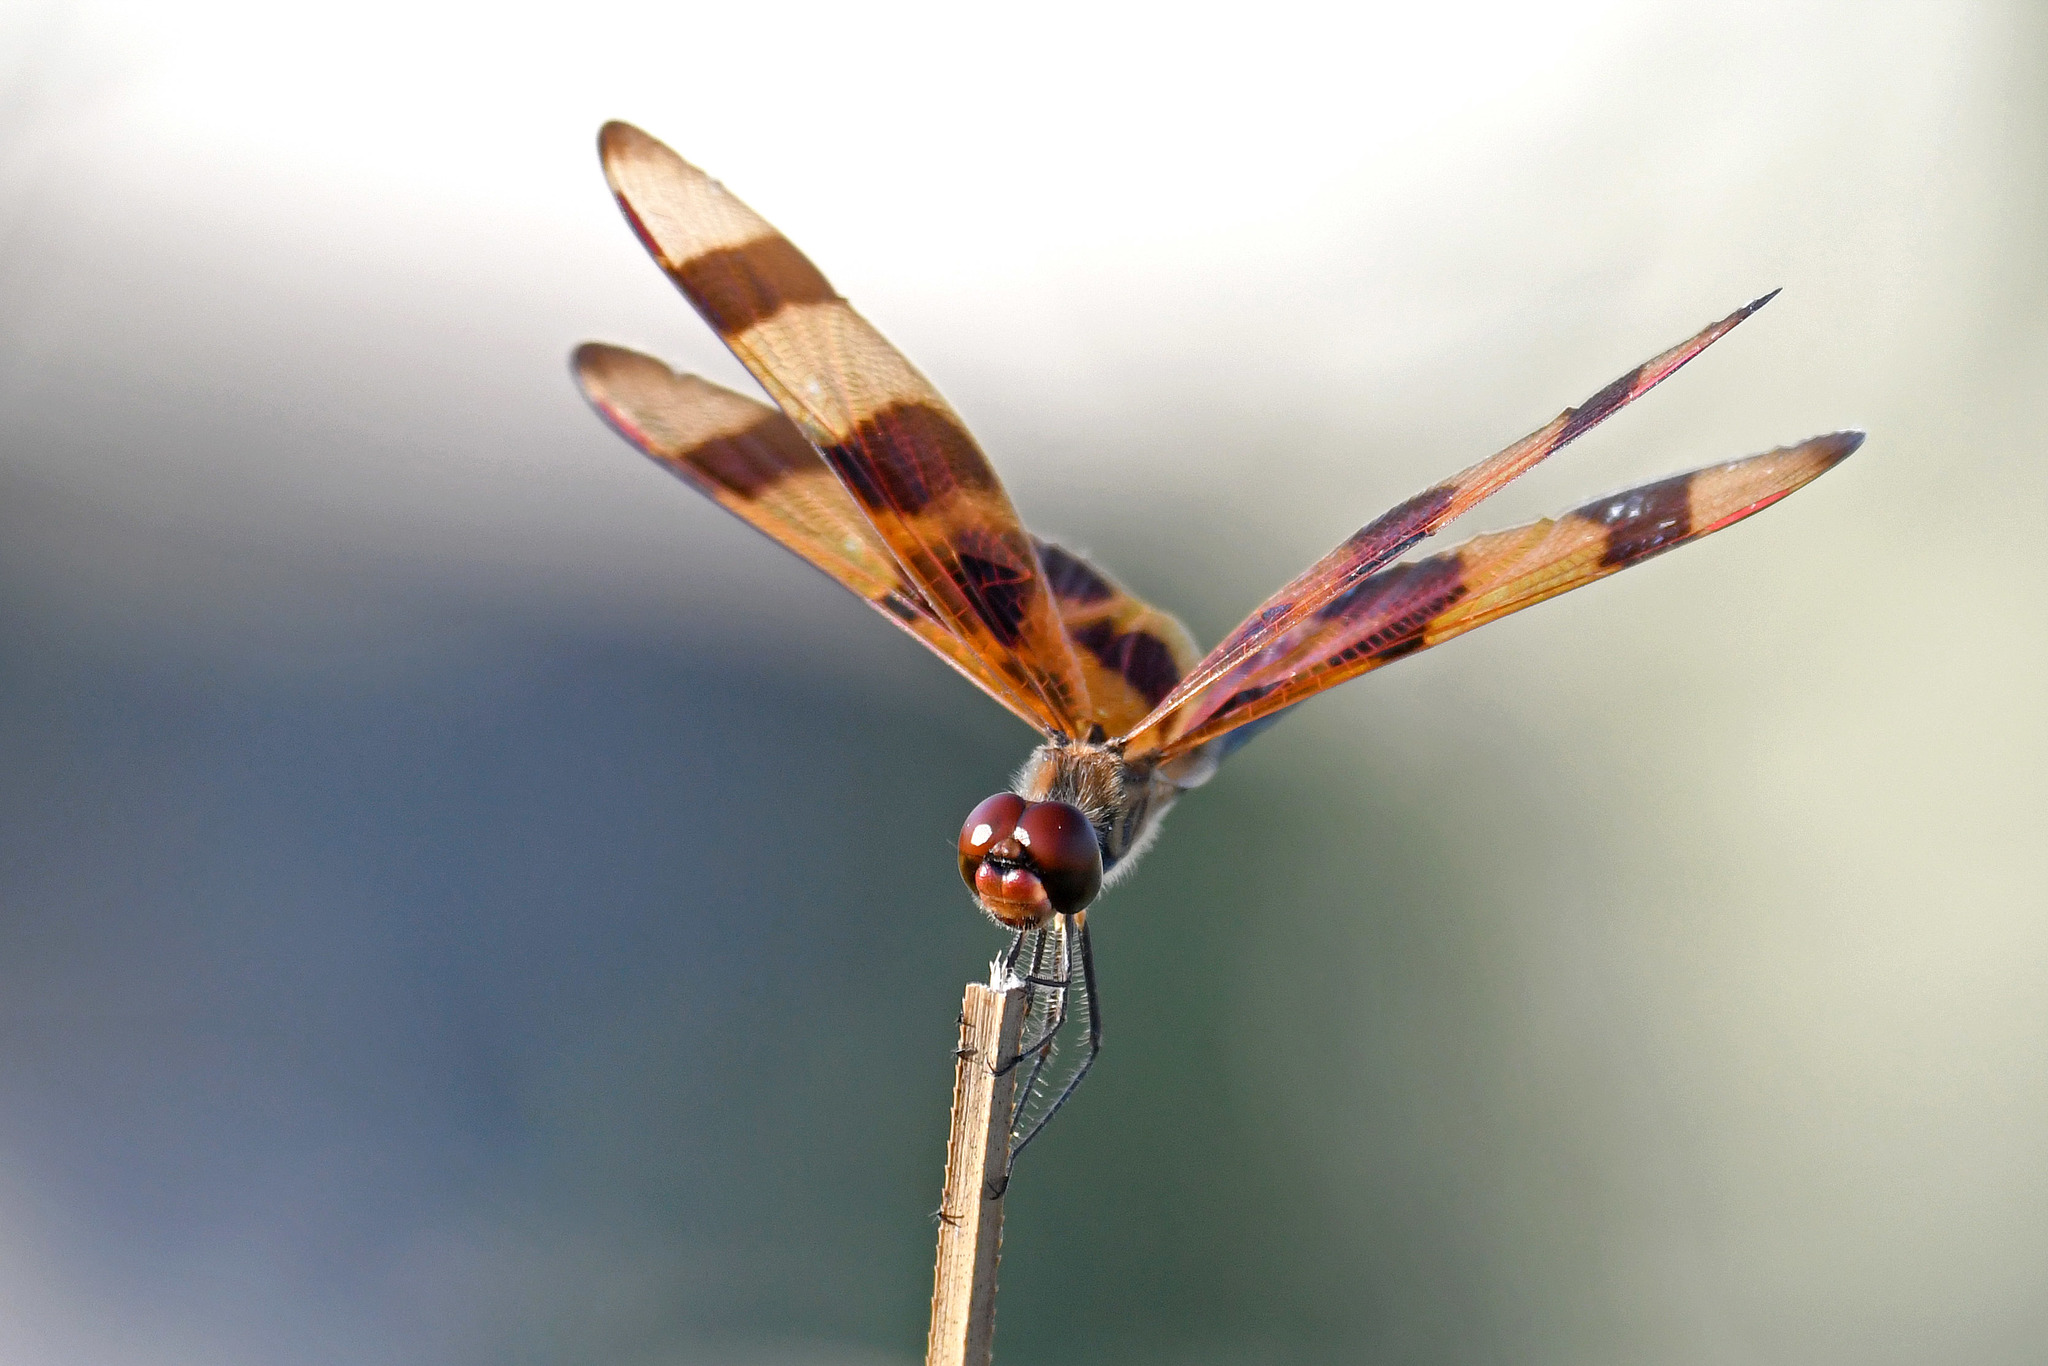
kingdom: Animalia
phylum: Arthropoda
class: Insecta
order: Odonata
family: Libellulidae
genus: Celithemis
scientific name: Celithemis eponina
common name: Halloween pennant
